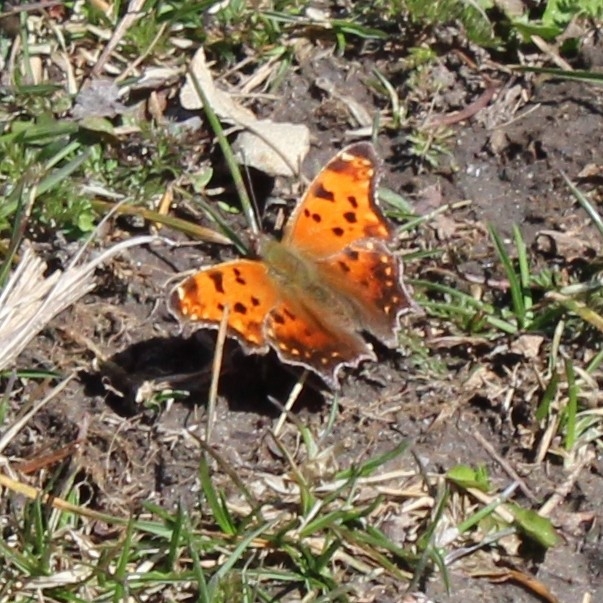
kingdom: Animalia
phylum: Arthropoda
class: Insecta
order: Lepidoptera
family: Nymphalidae
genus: Polygonia
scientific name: Polygonia comma
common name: Eastern comma
